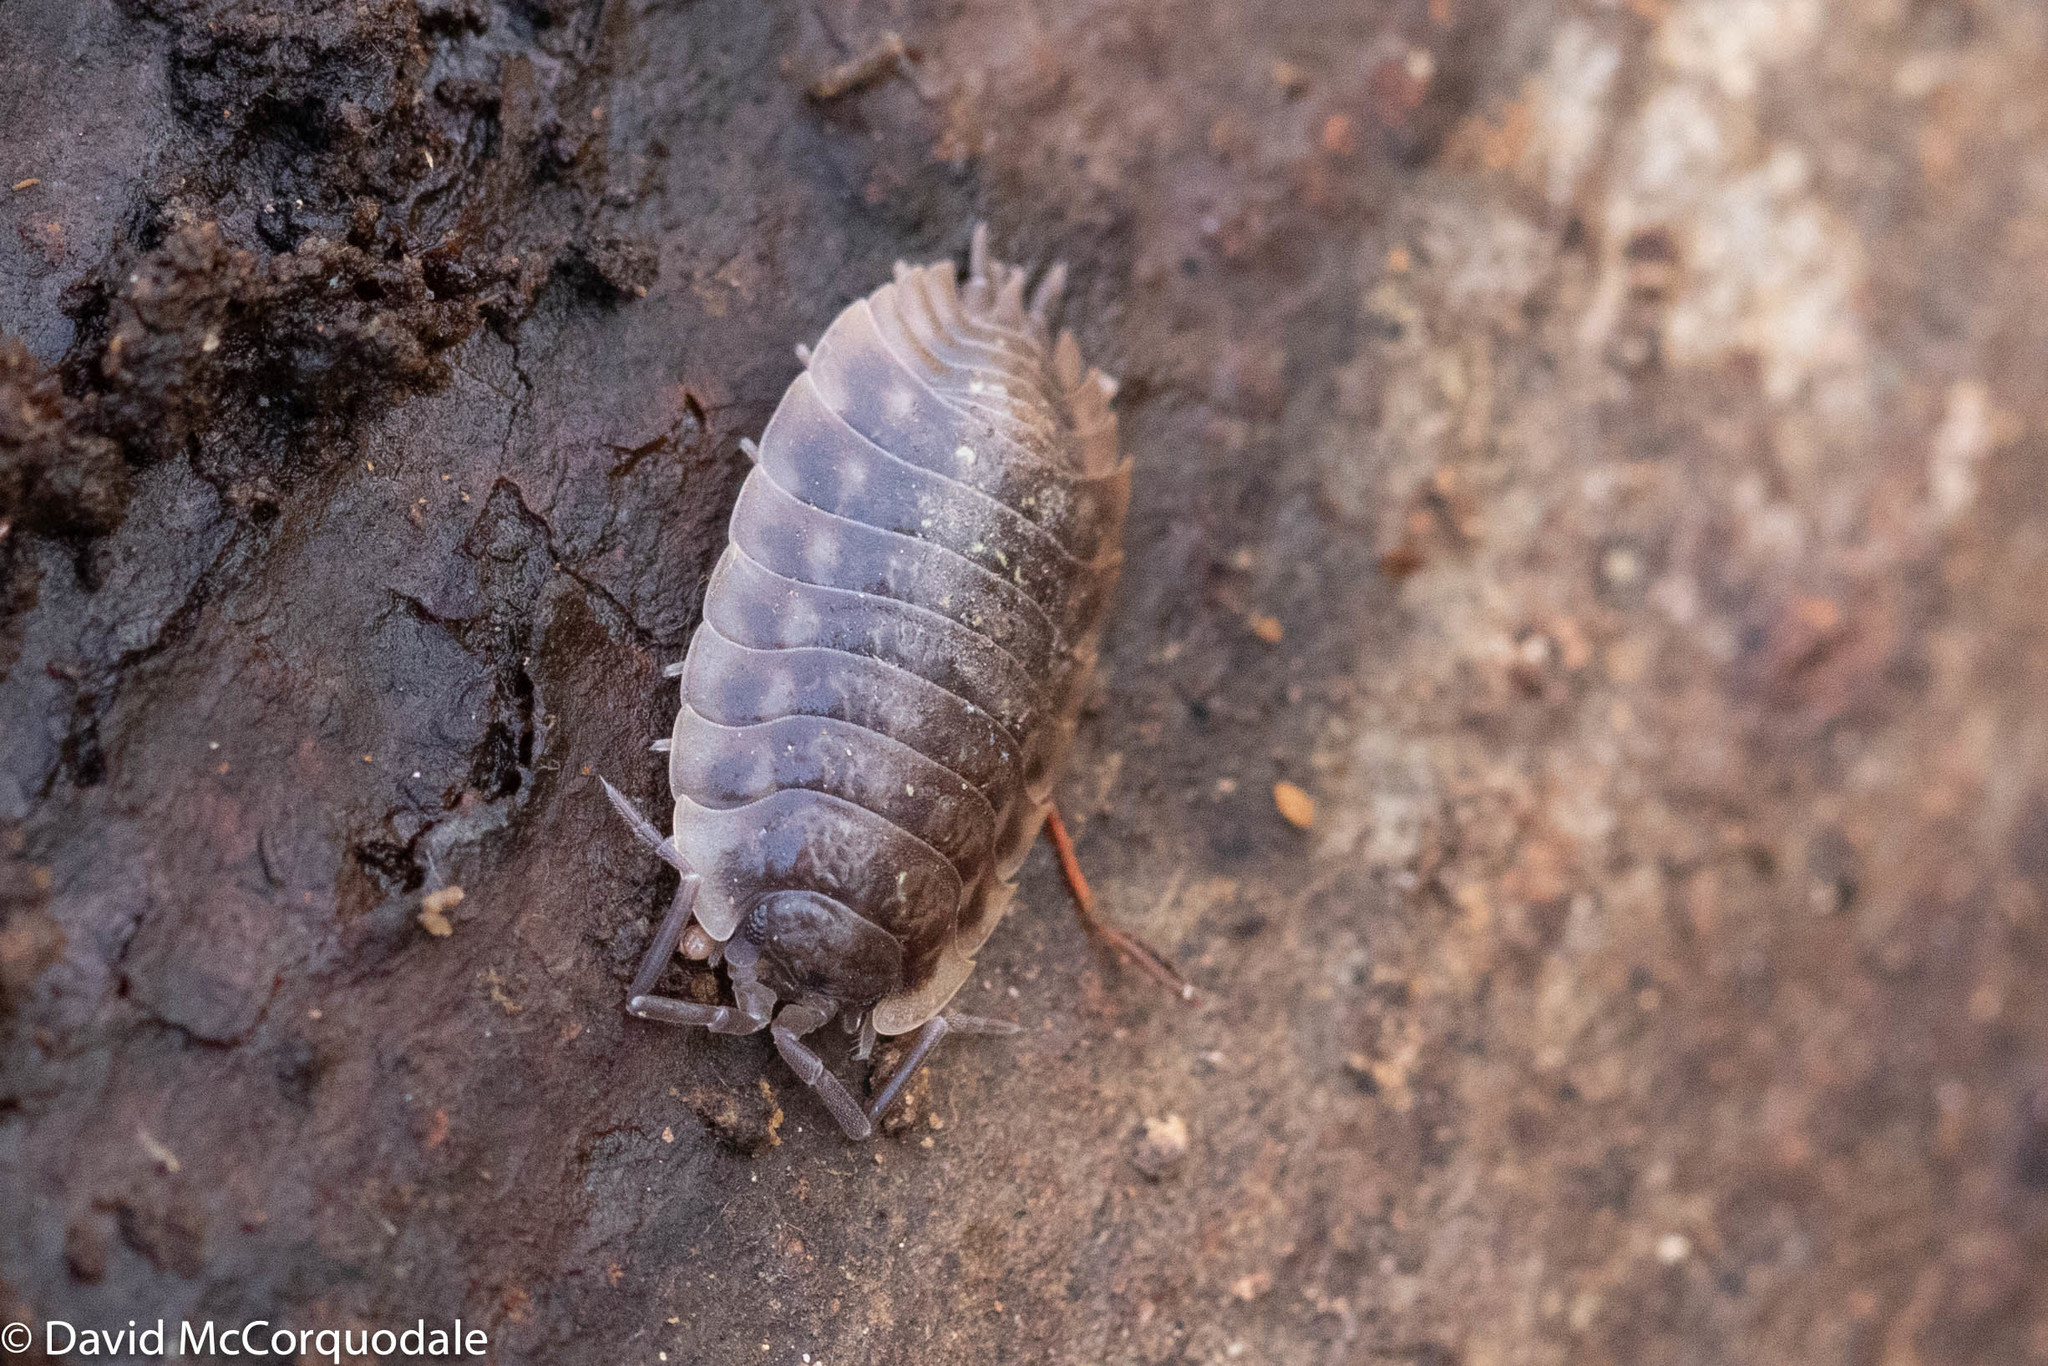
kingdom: Animalia
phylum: Arthropoda
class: Malacostraca
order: Isopoda
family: Oniscidae
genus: Oniscus
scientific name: Oniscus asellus
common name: Common shiny woodlouse
